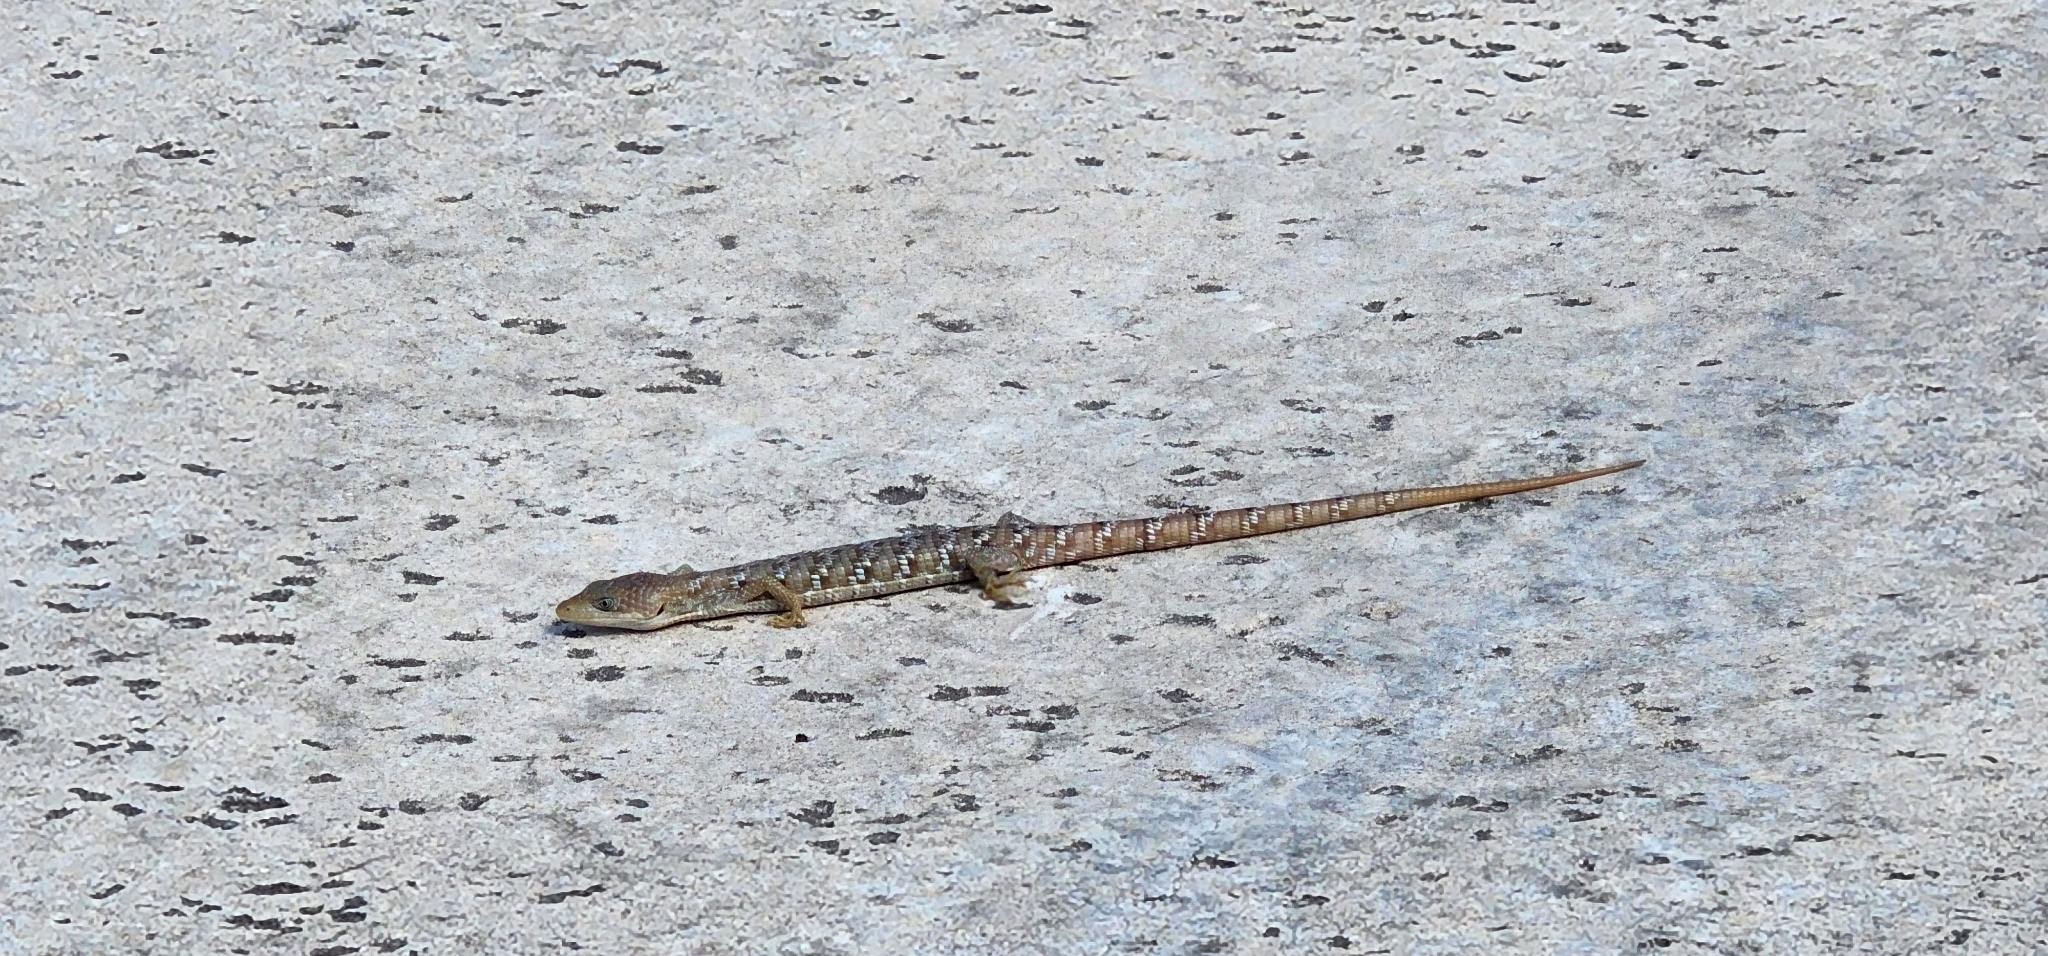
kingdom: Animalia
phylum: Chordata
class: Squamata
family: Anguidae
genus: Gerrhonotus
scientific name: Gerrhonotus infernalis
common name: Texas alligator lizard
